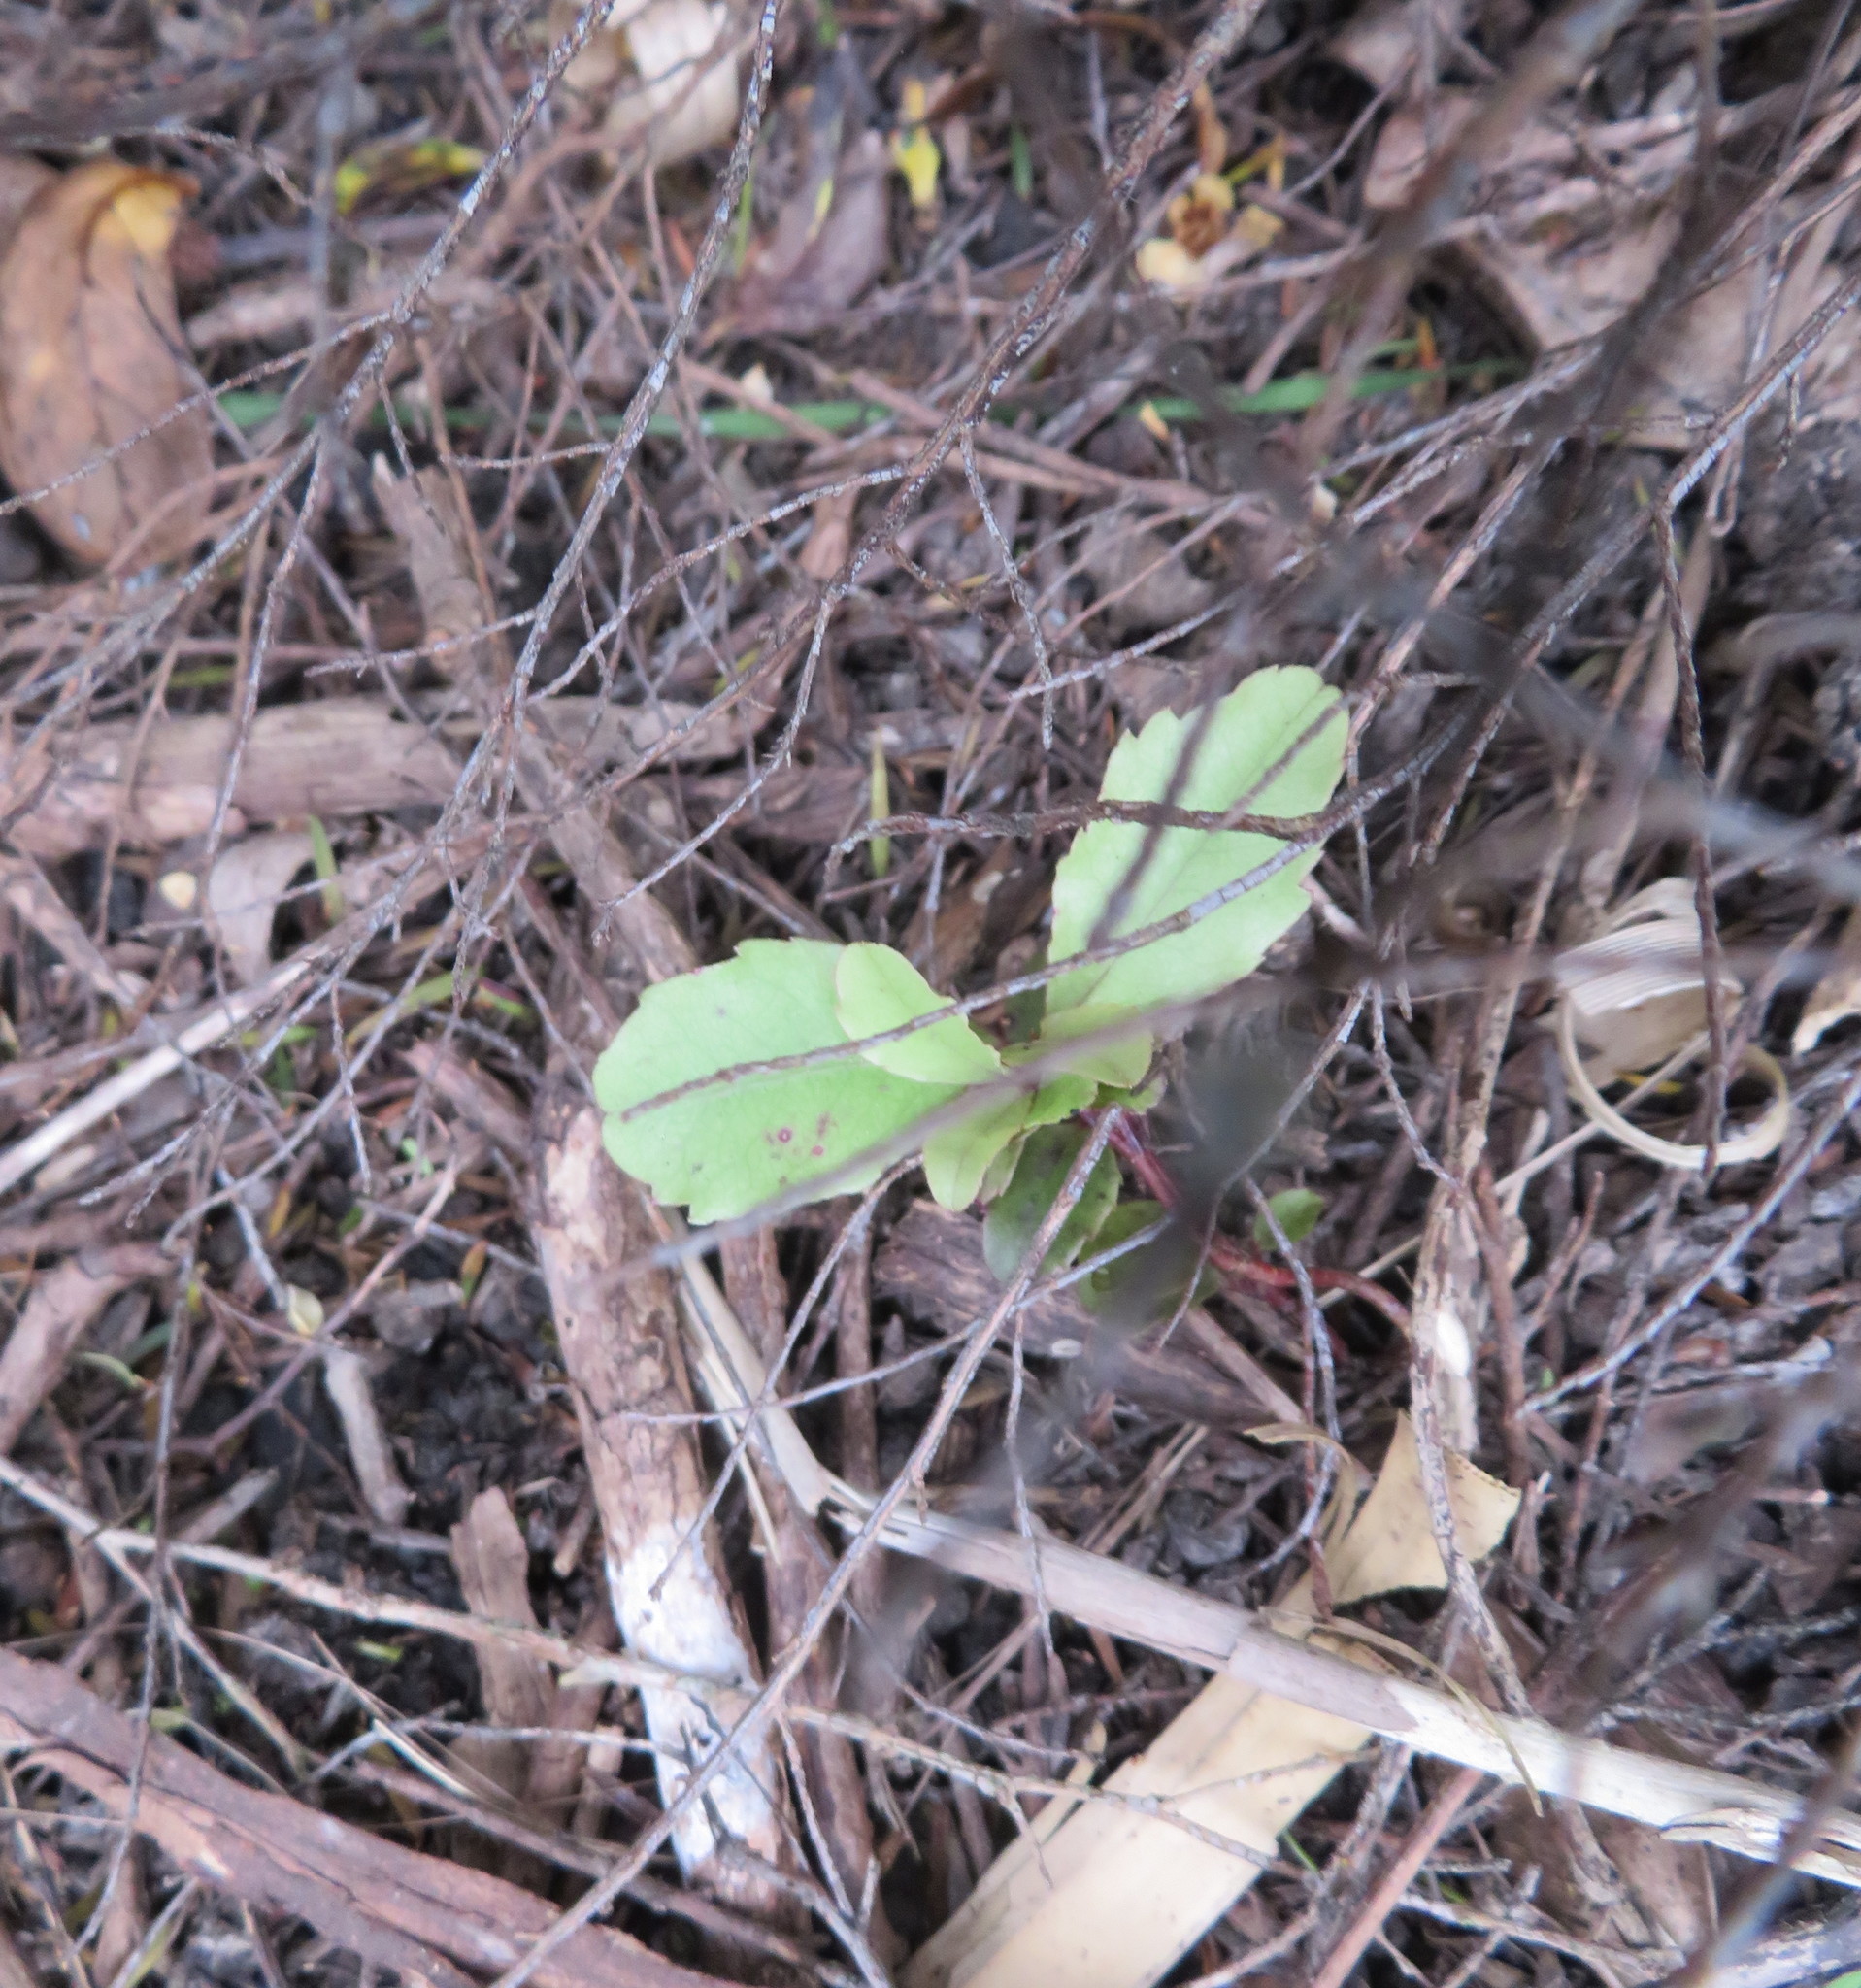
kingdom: Plantae
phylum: Tracheophyta
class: Magnoliopsida
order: Ericales
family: Primulaceae
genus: Myrsine
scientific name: Myrsine australis
